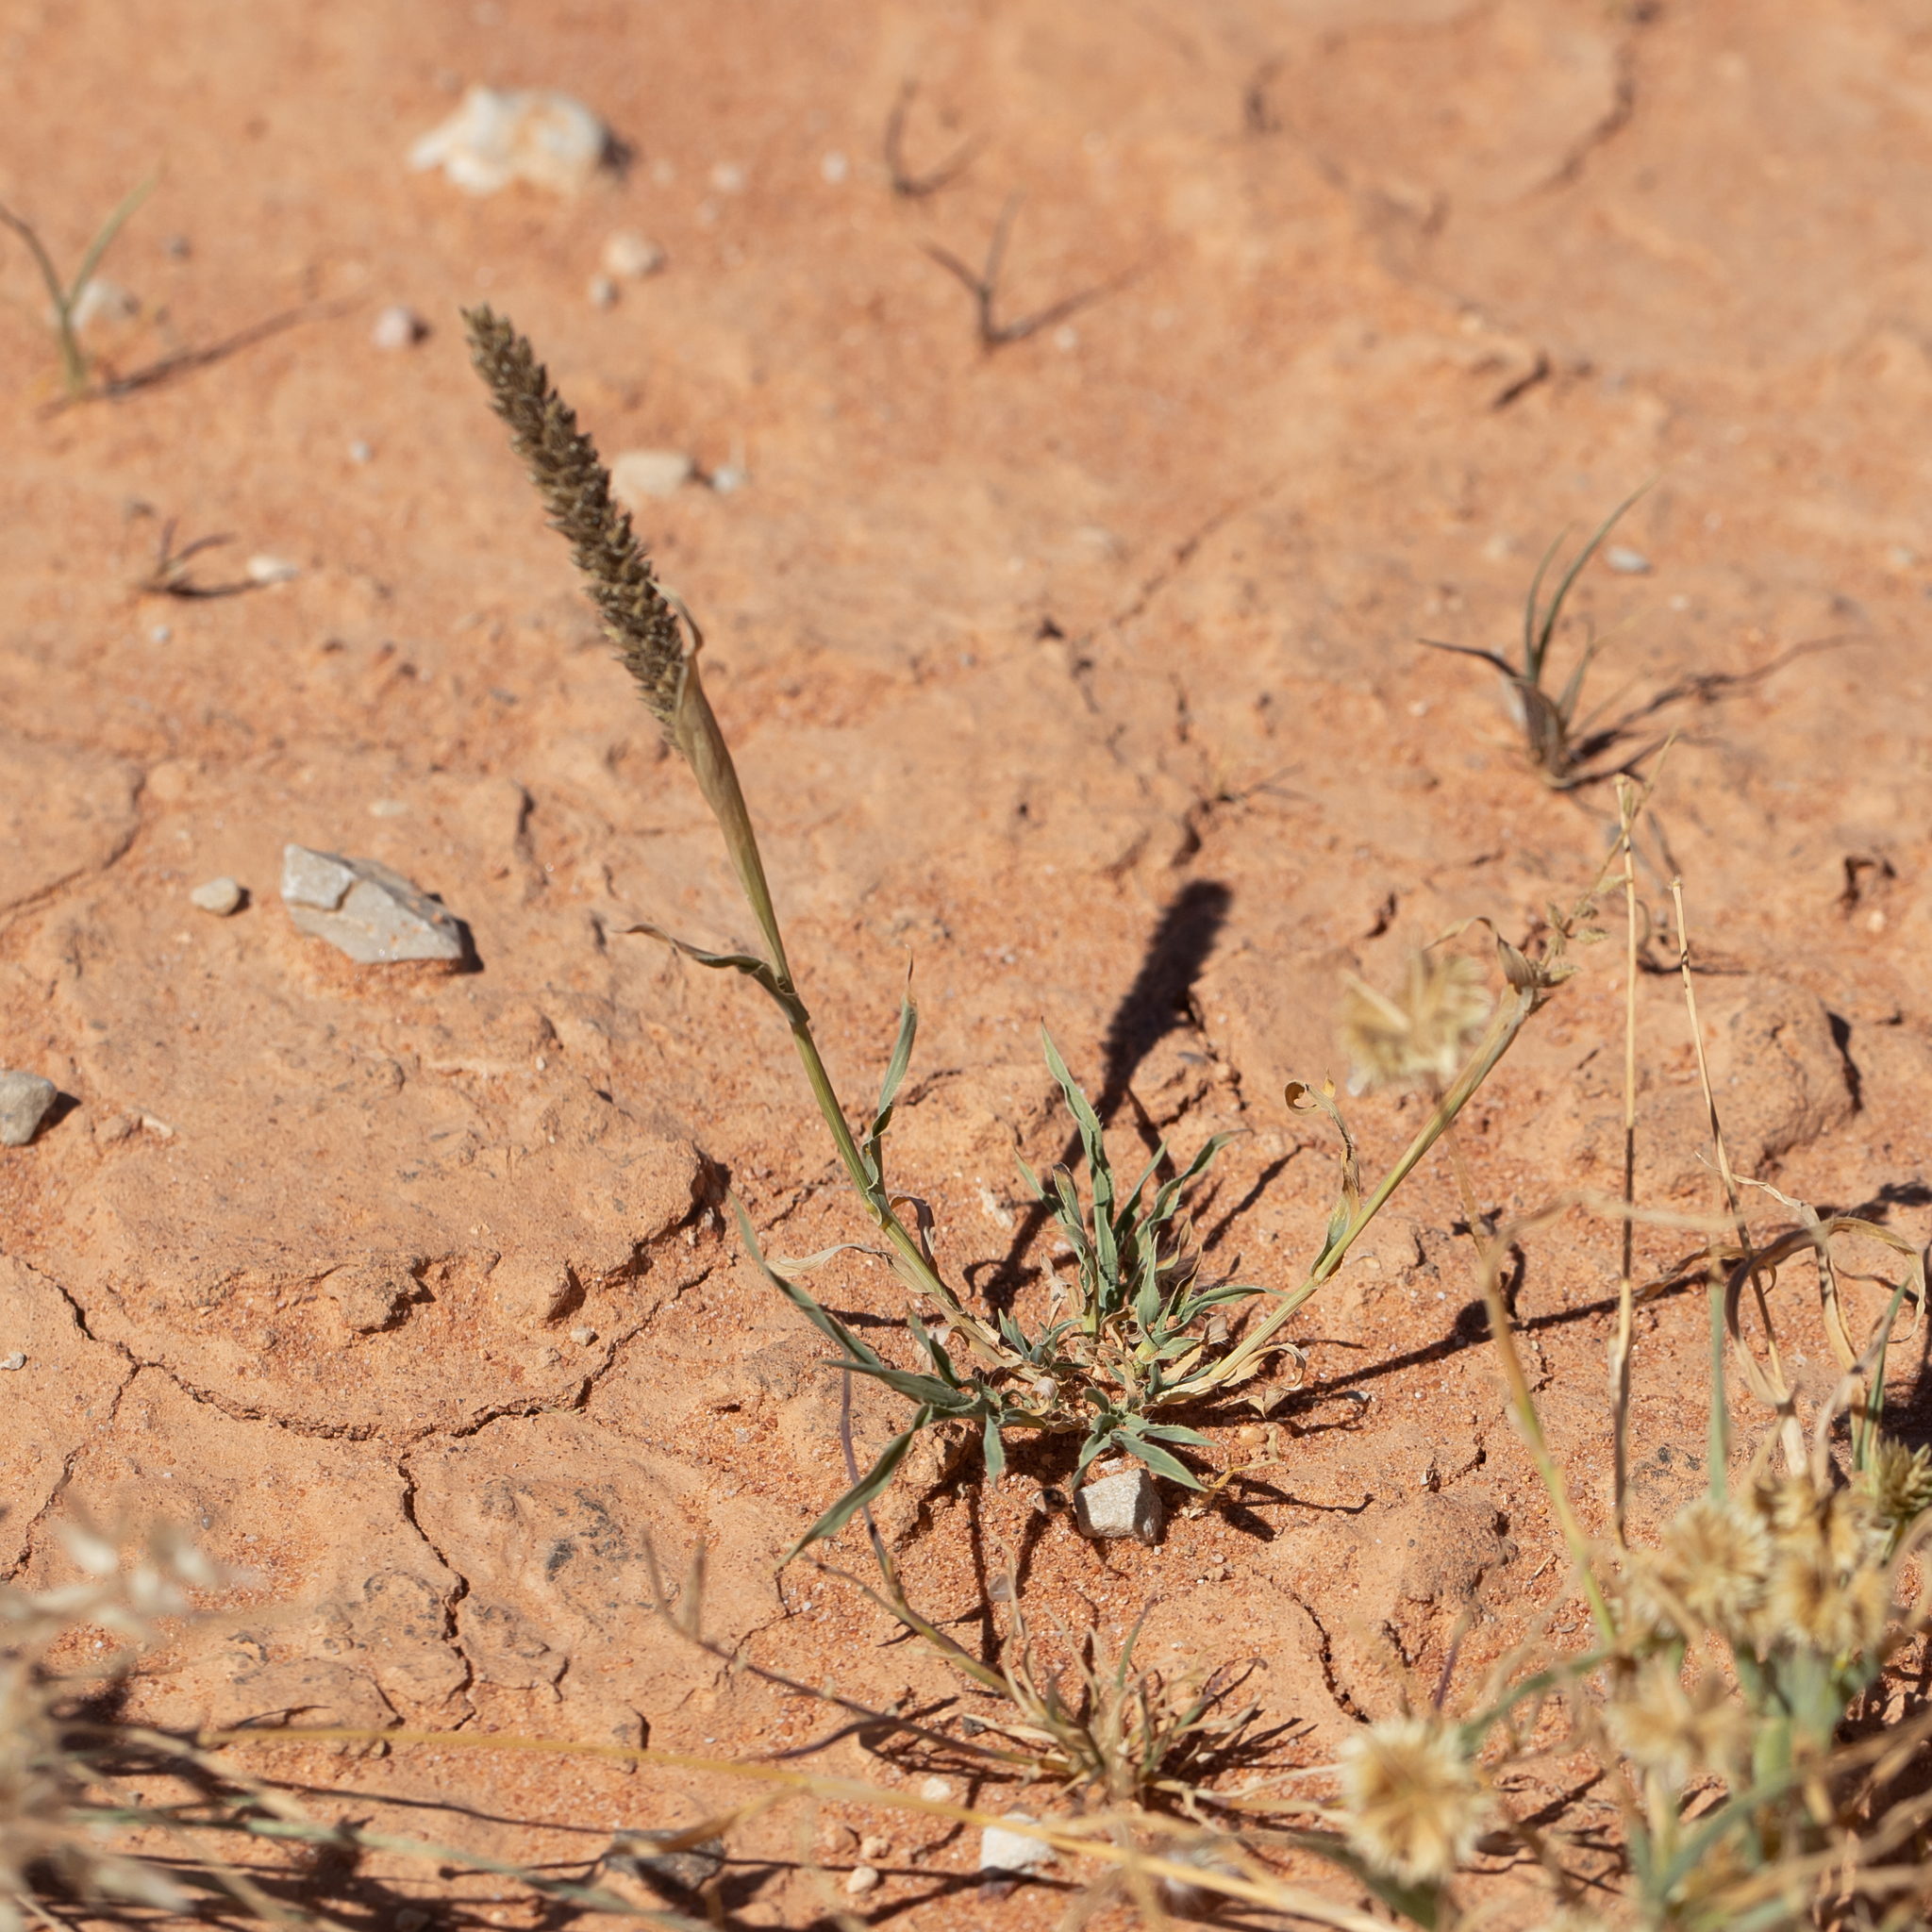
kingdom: Plantae
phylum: Tracheophyta
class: Liliopsida
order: Poales
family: Poaceae
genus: Tragus
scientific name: Tragus australianus
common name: Australian bur-grass
